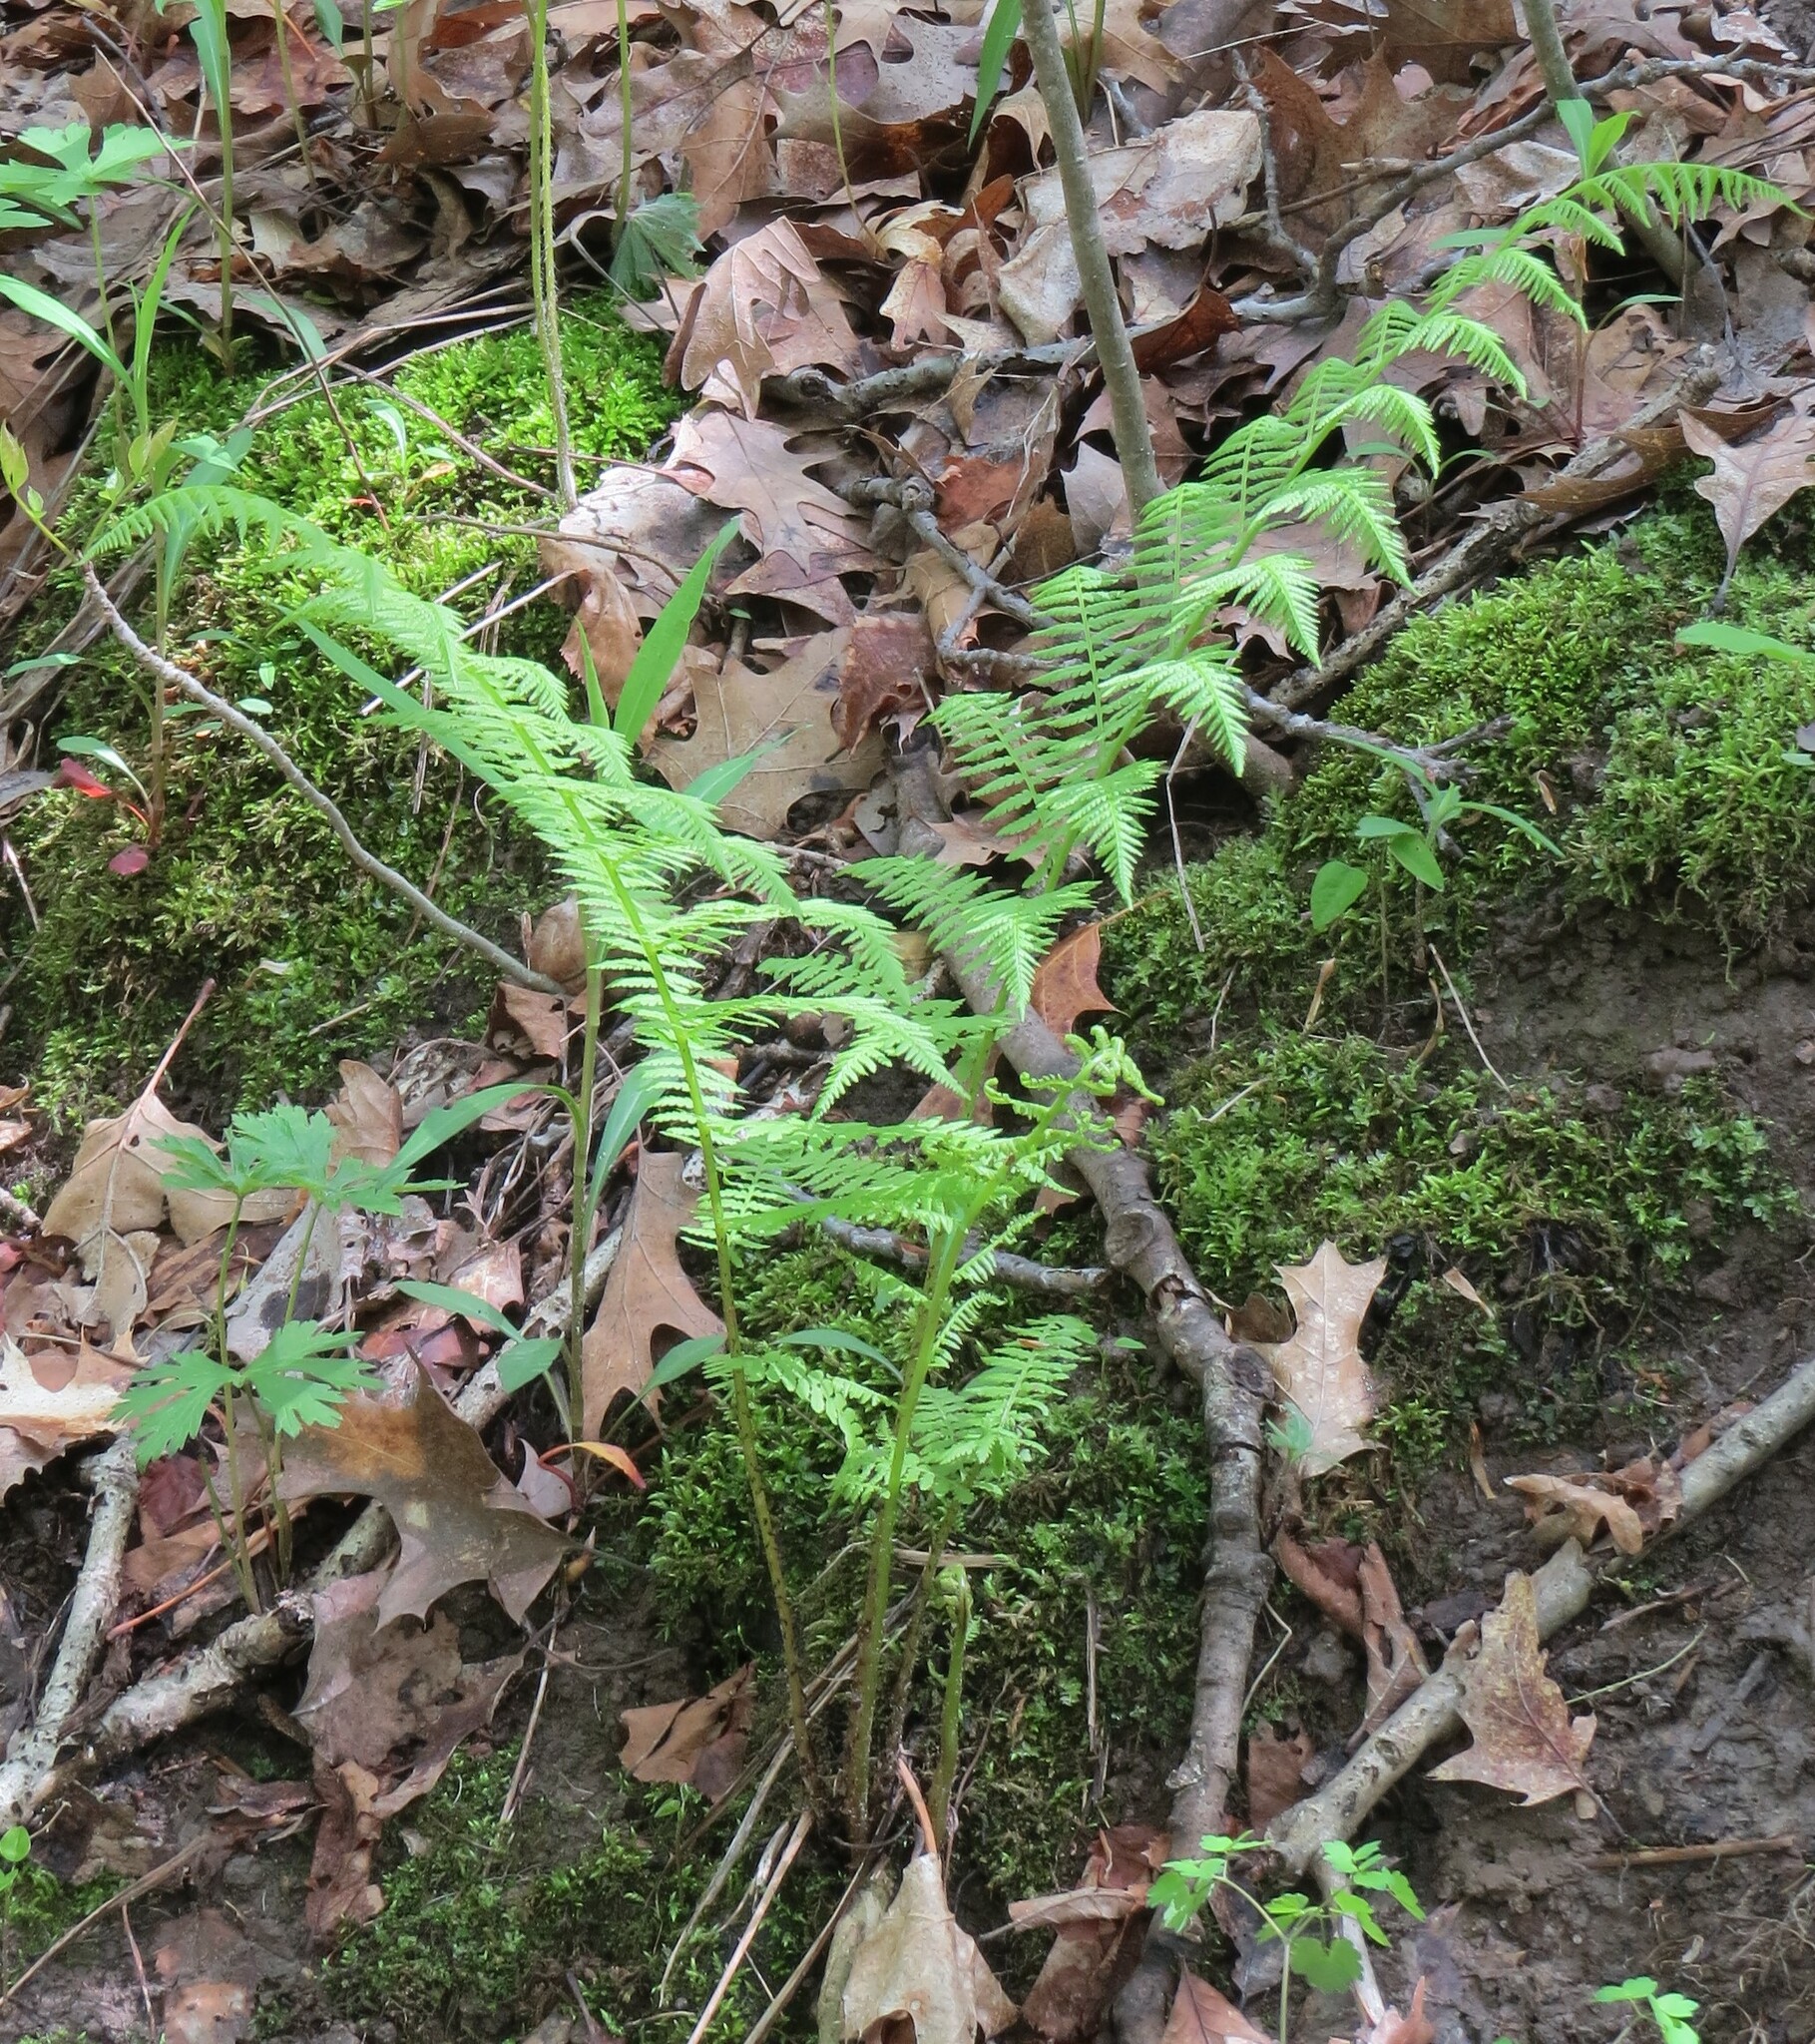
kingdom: Plantae
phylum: Tracheophyta
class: Polypodiopsida
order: Polypodiales
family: Athyriaceae
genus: Athyrium
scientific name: Athyrium angustum
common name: Northern lady fern
